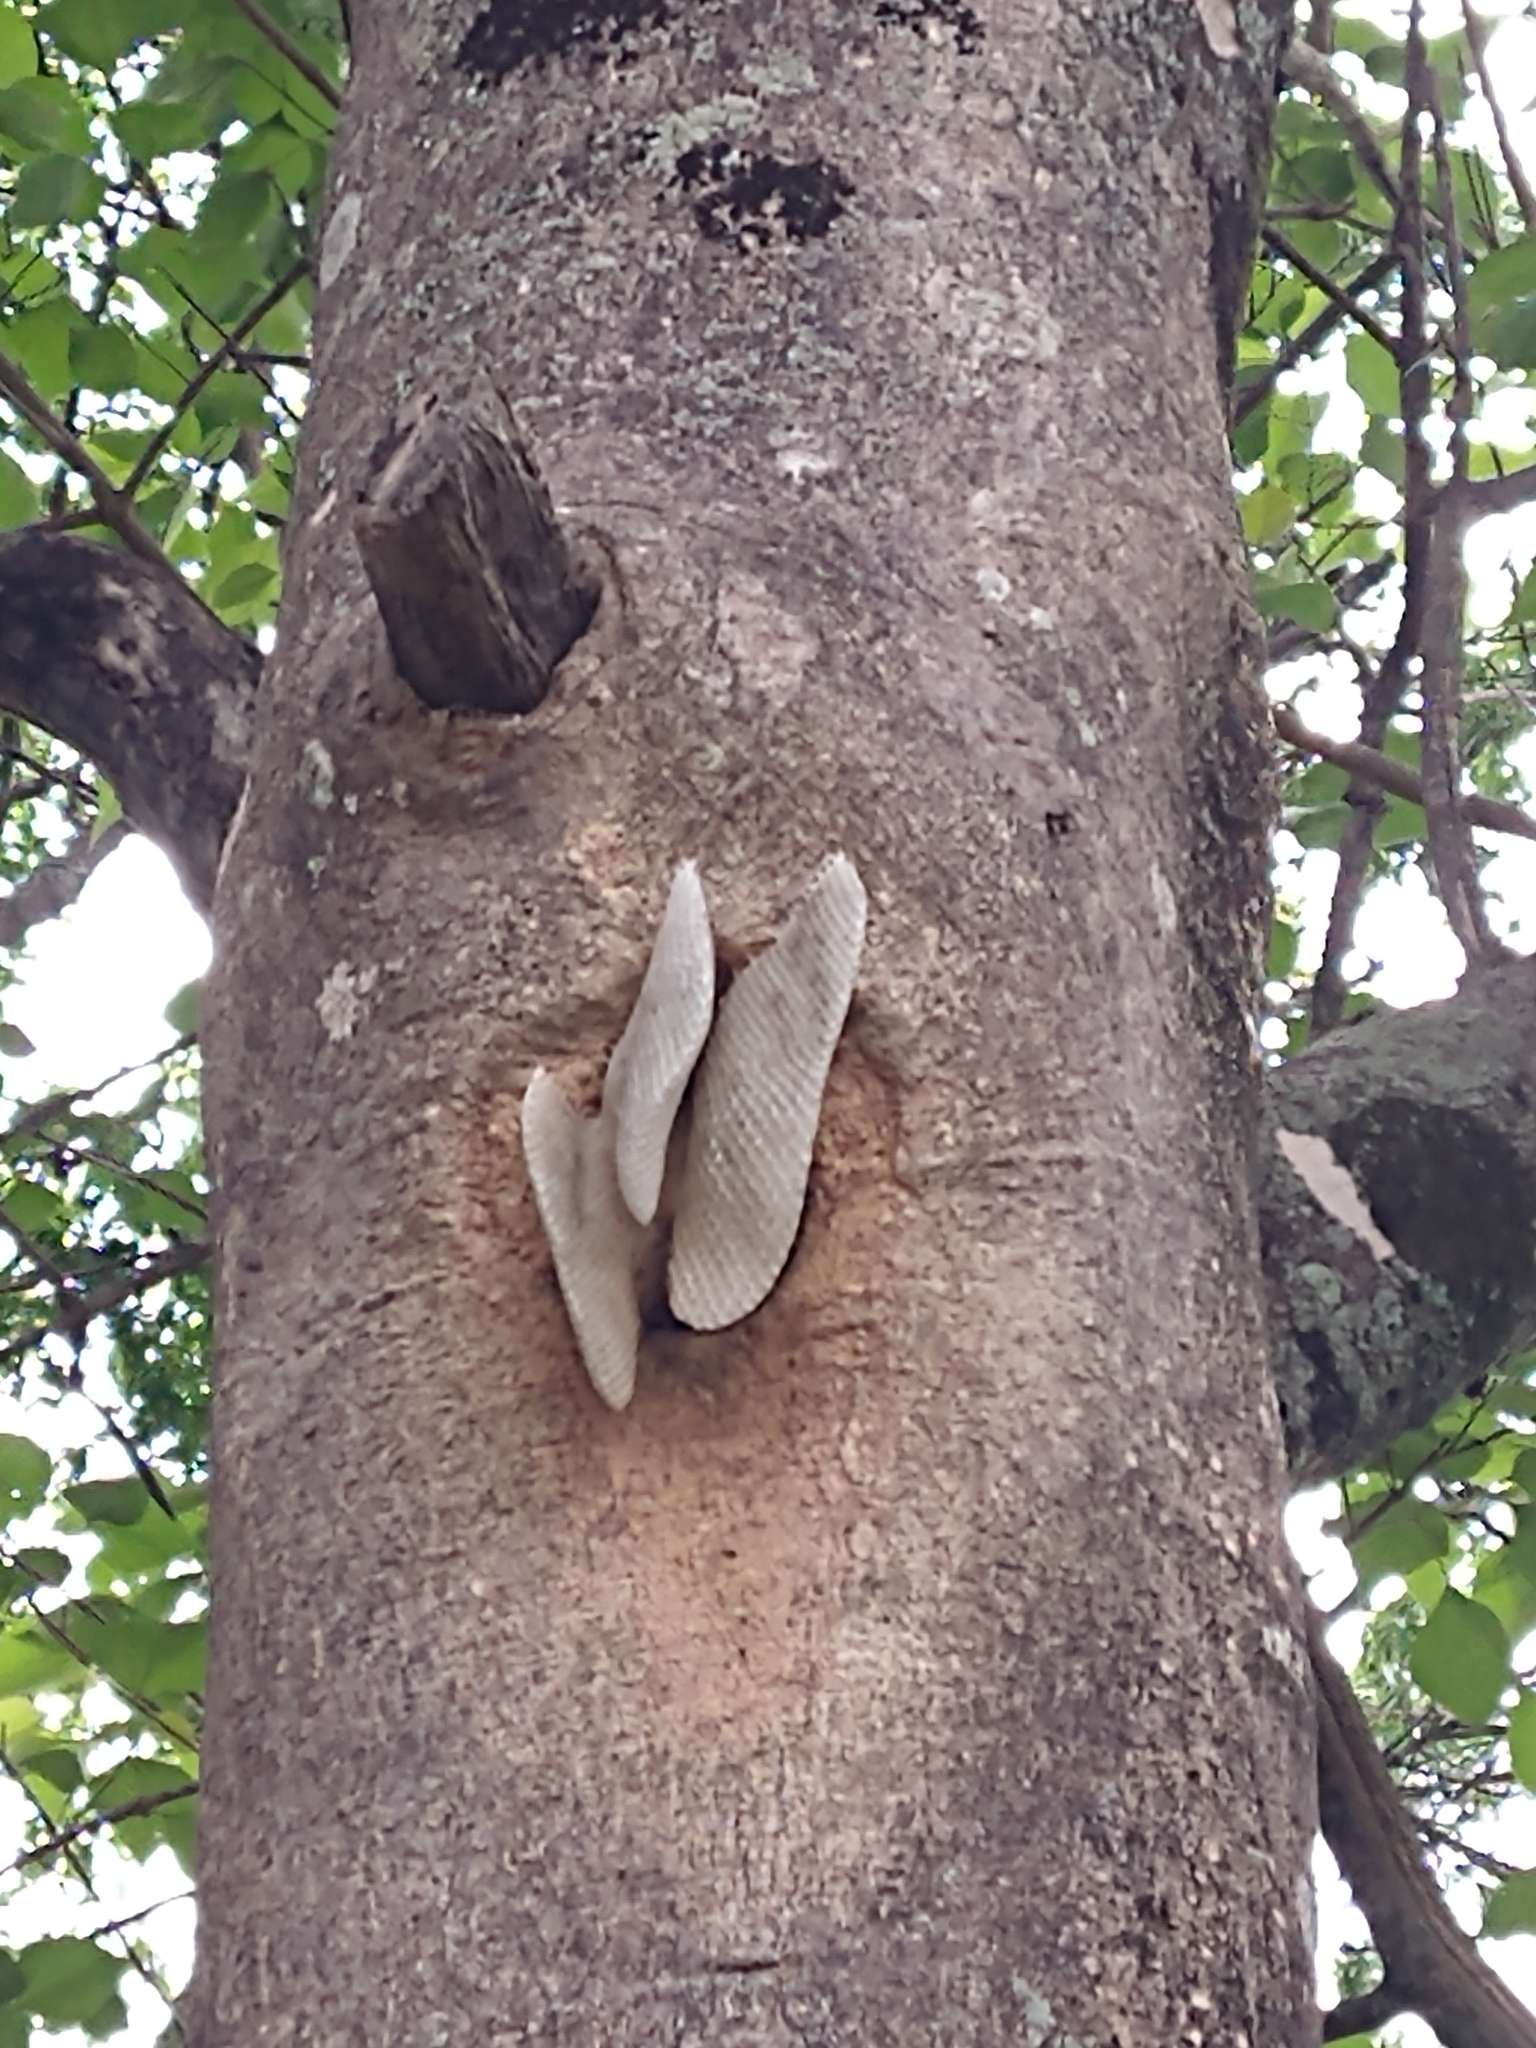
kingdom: Animalia
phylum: Arthropoda
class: Insecta
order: Hymenoptera
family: Apidae
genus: Apis
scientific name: Apis mellifera
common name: Honey bee
